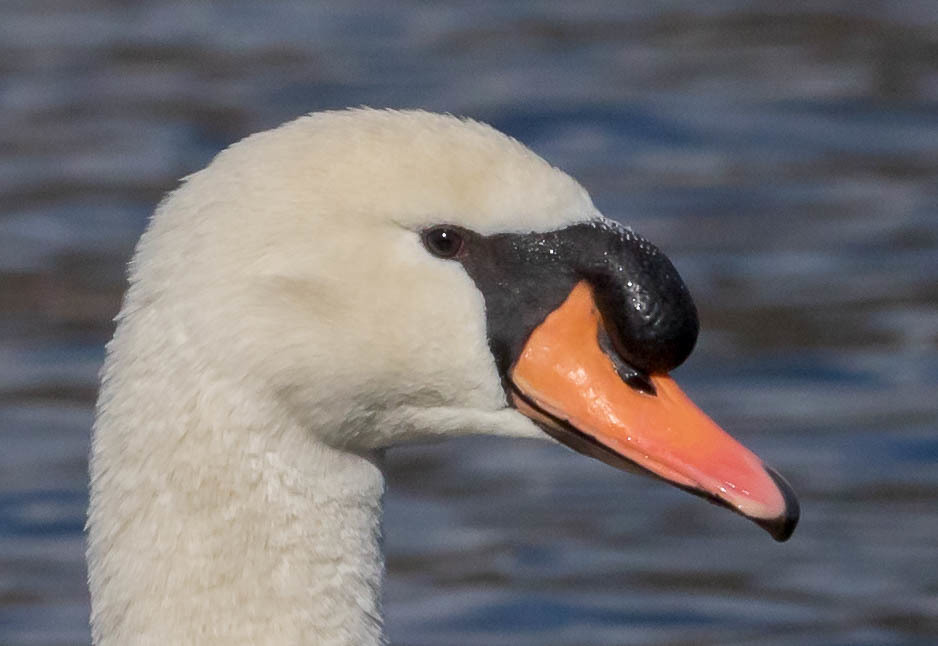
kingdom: Animalia
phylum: Chordata
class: Aves
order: Anseriformes
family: Anatidae
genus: Cygnus
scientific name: Cygnus olor
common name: Mute swan
